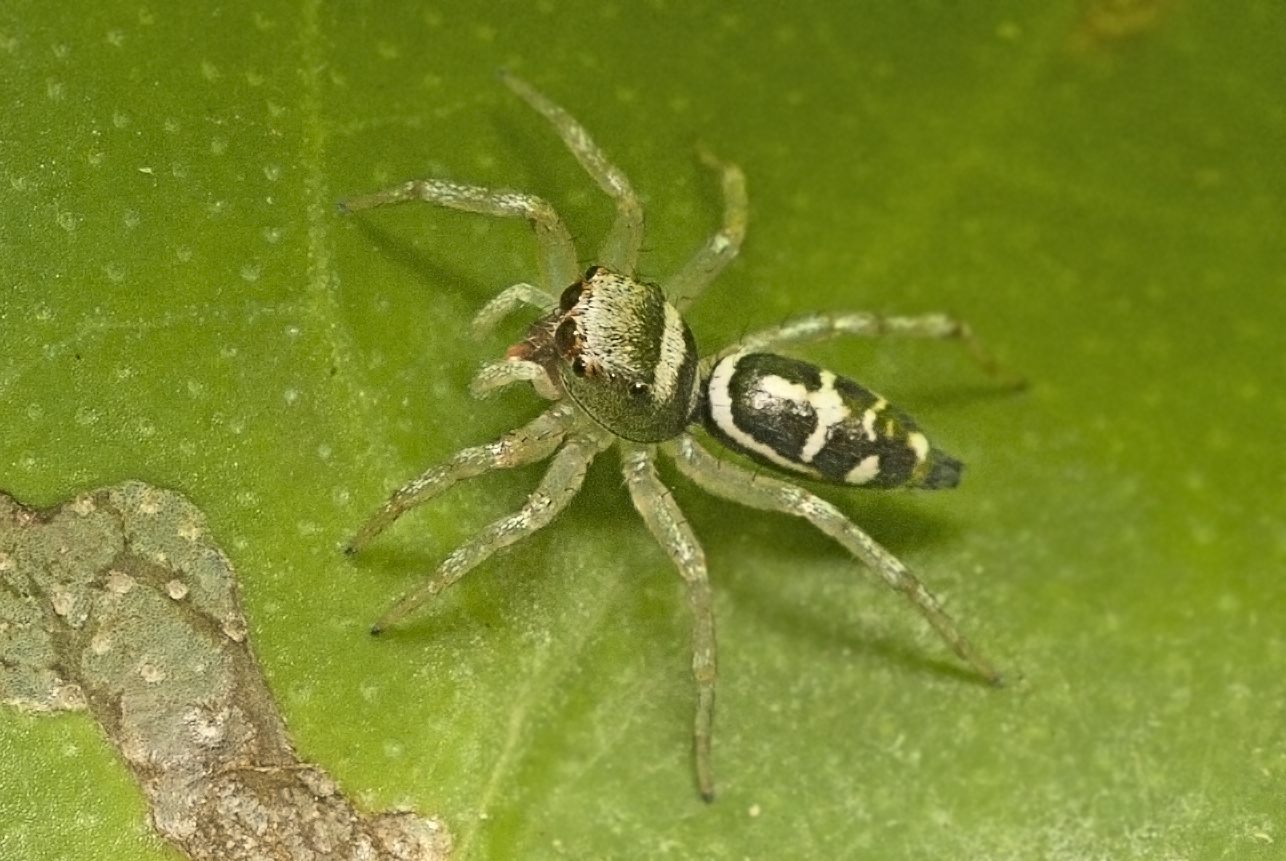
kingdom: Animalia
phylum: Arthropoda
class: Arachnida
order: Araneae
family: Salticidae
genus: Cosmophasis
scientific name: Cosmophasis baehrae
